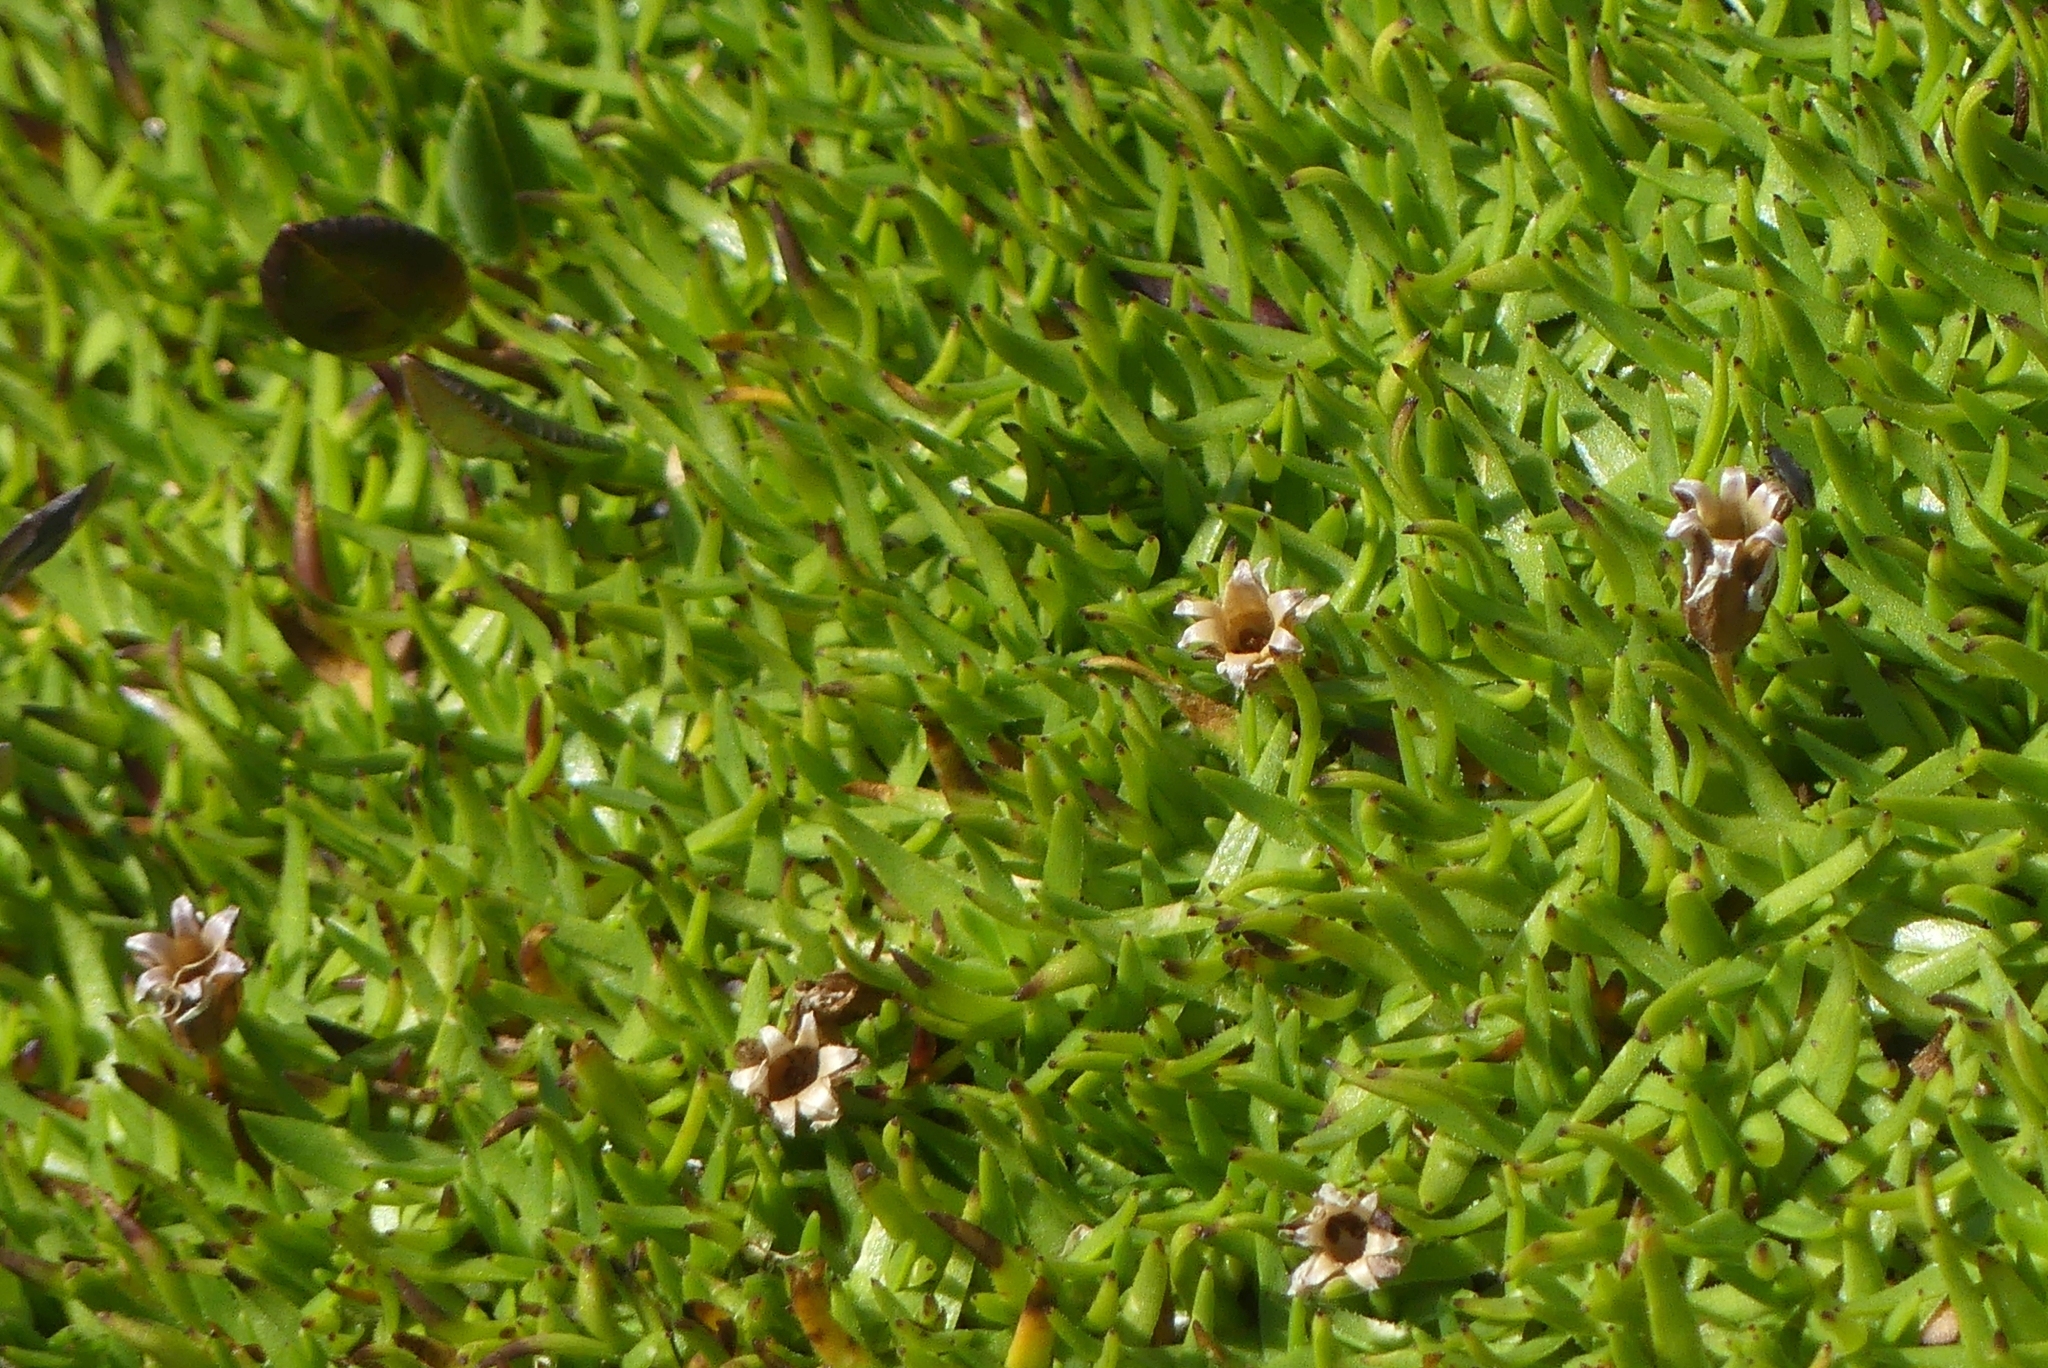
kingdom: Plantae
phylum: Tracheophyta
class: Magnoliopsida
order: Caryophyllales
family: Caryophyllaceae
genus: Silene
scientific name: Silene acaulis
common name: Moss campion
